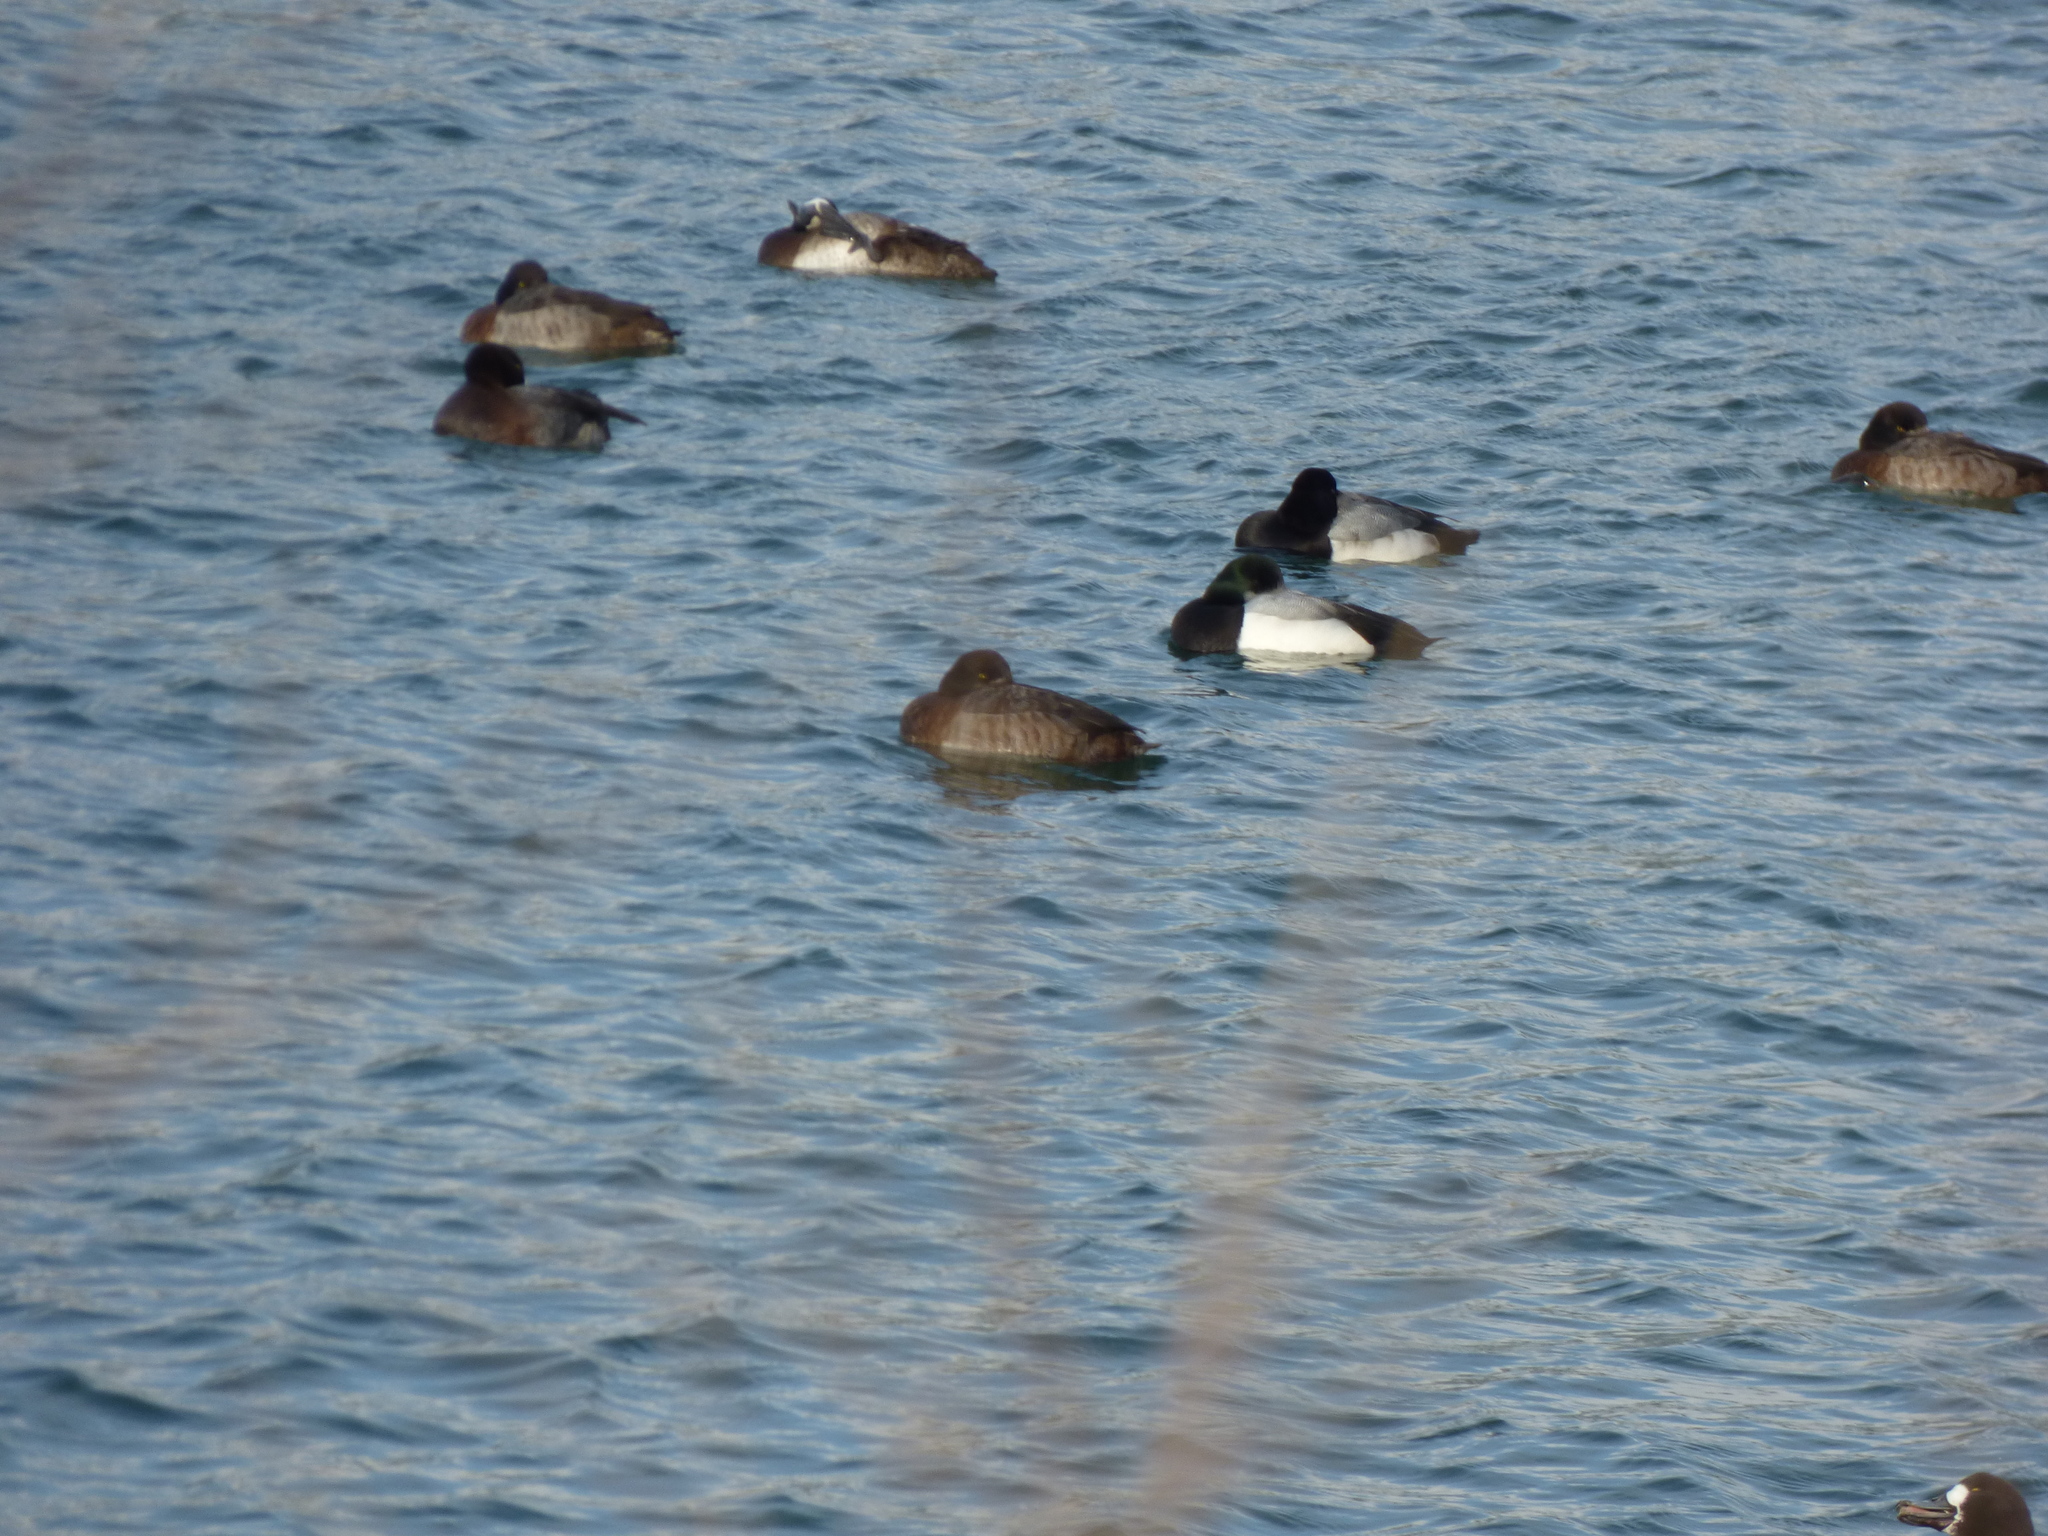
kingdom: Animalia
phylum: Chordata
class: Aves
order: Anseriformes
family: Anatidae
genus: Aythya
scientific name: Aythya marila
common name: Greater scaup
